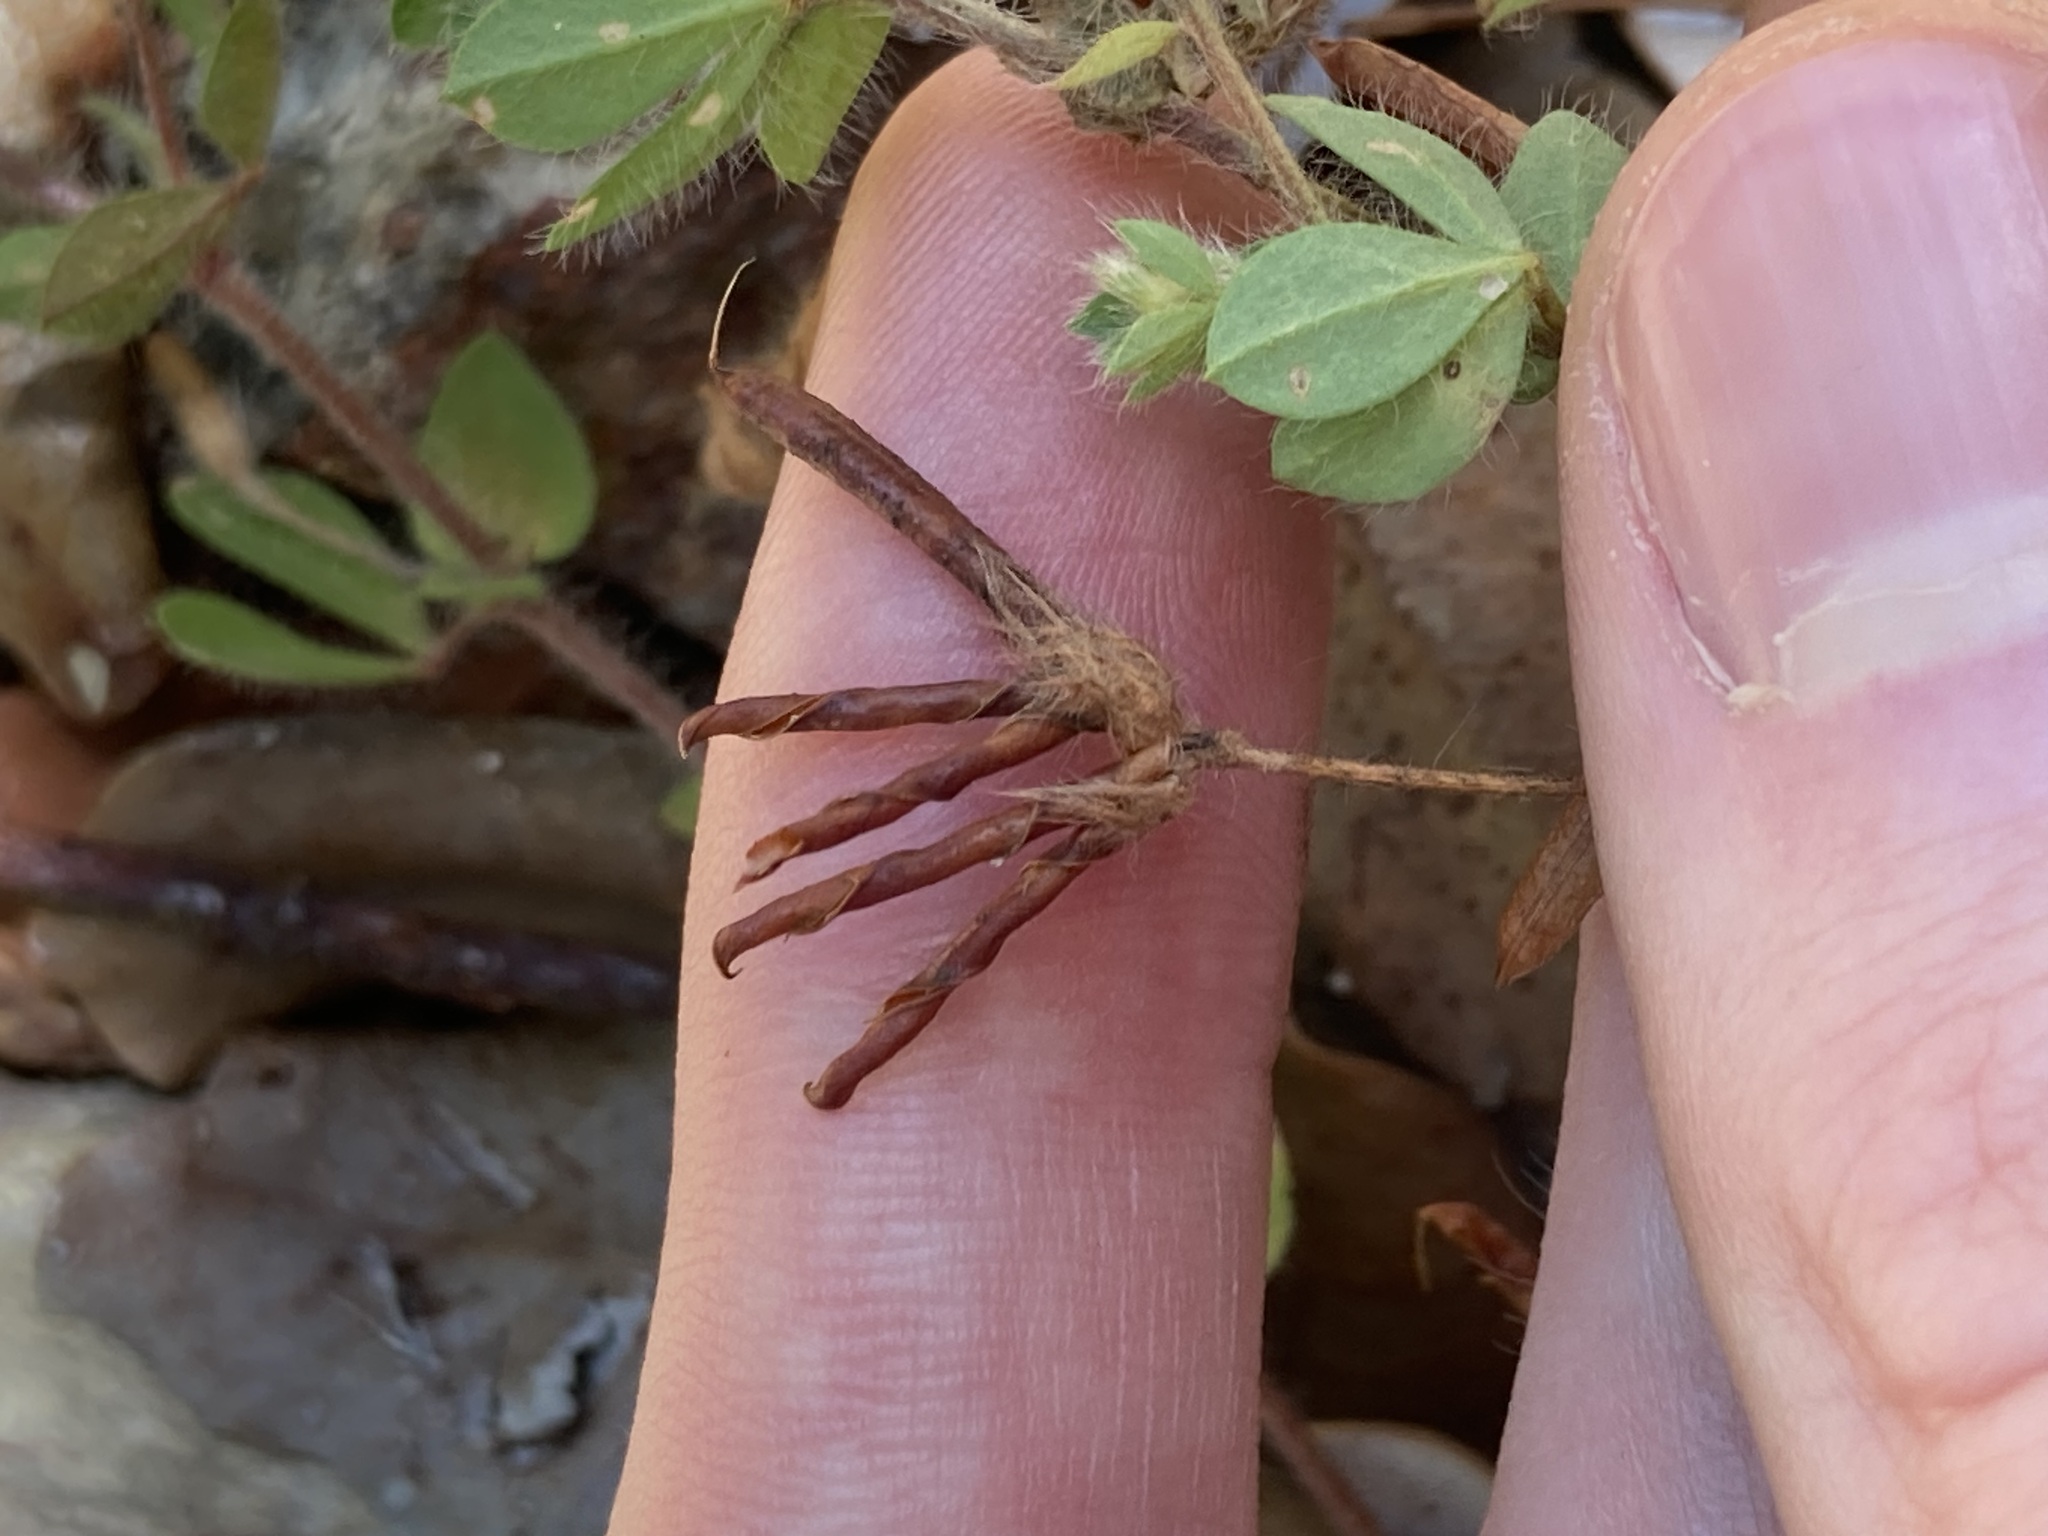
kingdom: Plantae
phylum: Tracheophyta
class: Magnoliopsida
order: Fabales
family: Fabaceae
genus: Lotus
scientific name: Lotus subbiflorus
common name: Hairy bird's-foot trefoil
